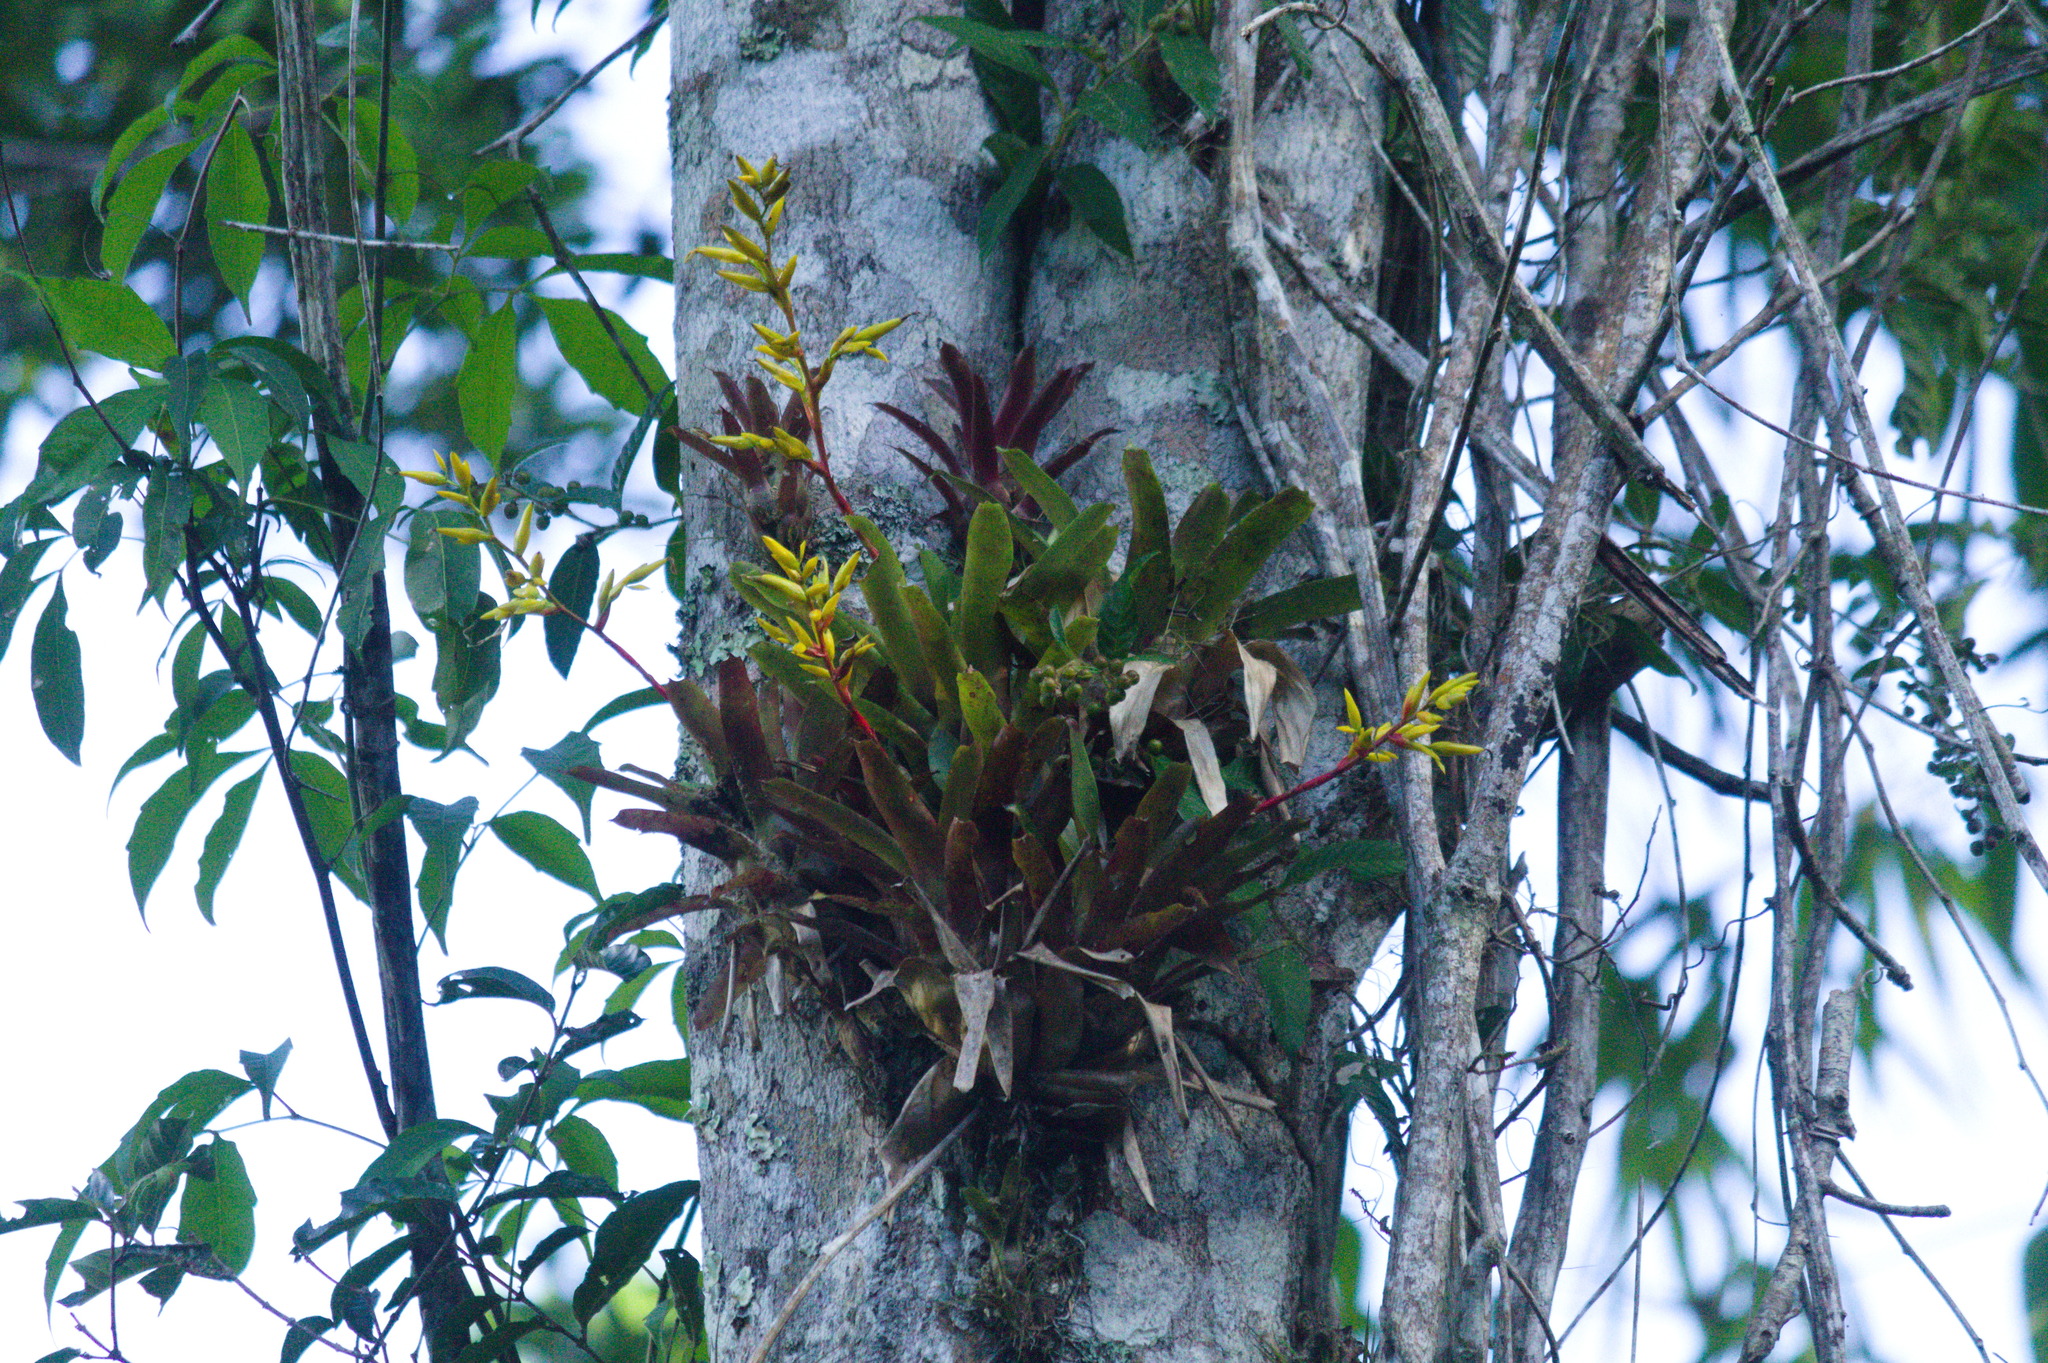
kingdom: Plantae
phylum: Tracheophyta
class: Liliopsida
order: Poales
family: Bromeliaceae
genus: Vriesea
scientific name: Vriesea rodigasiana
